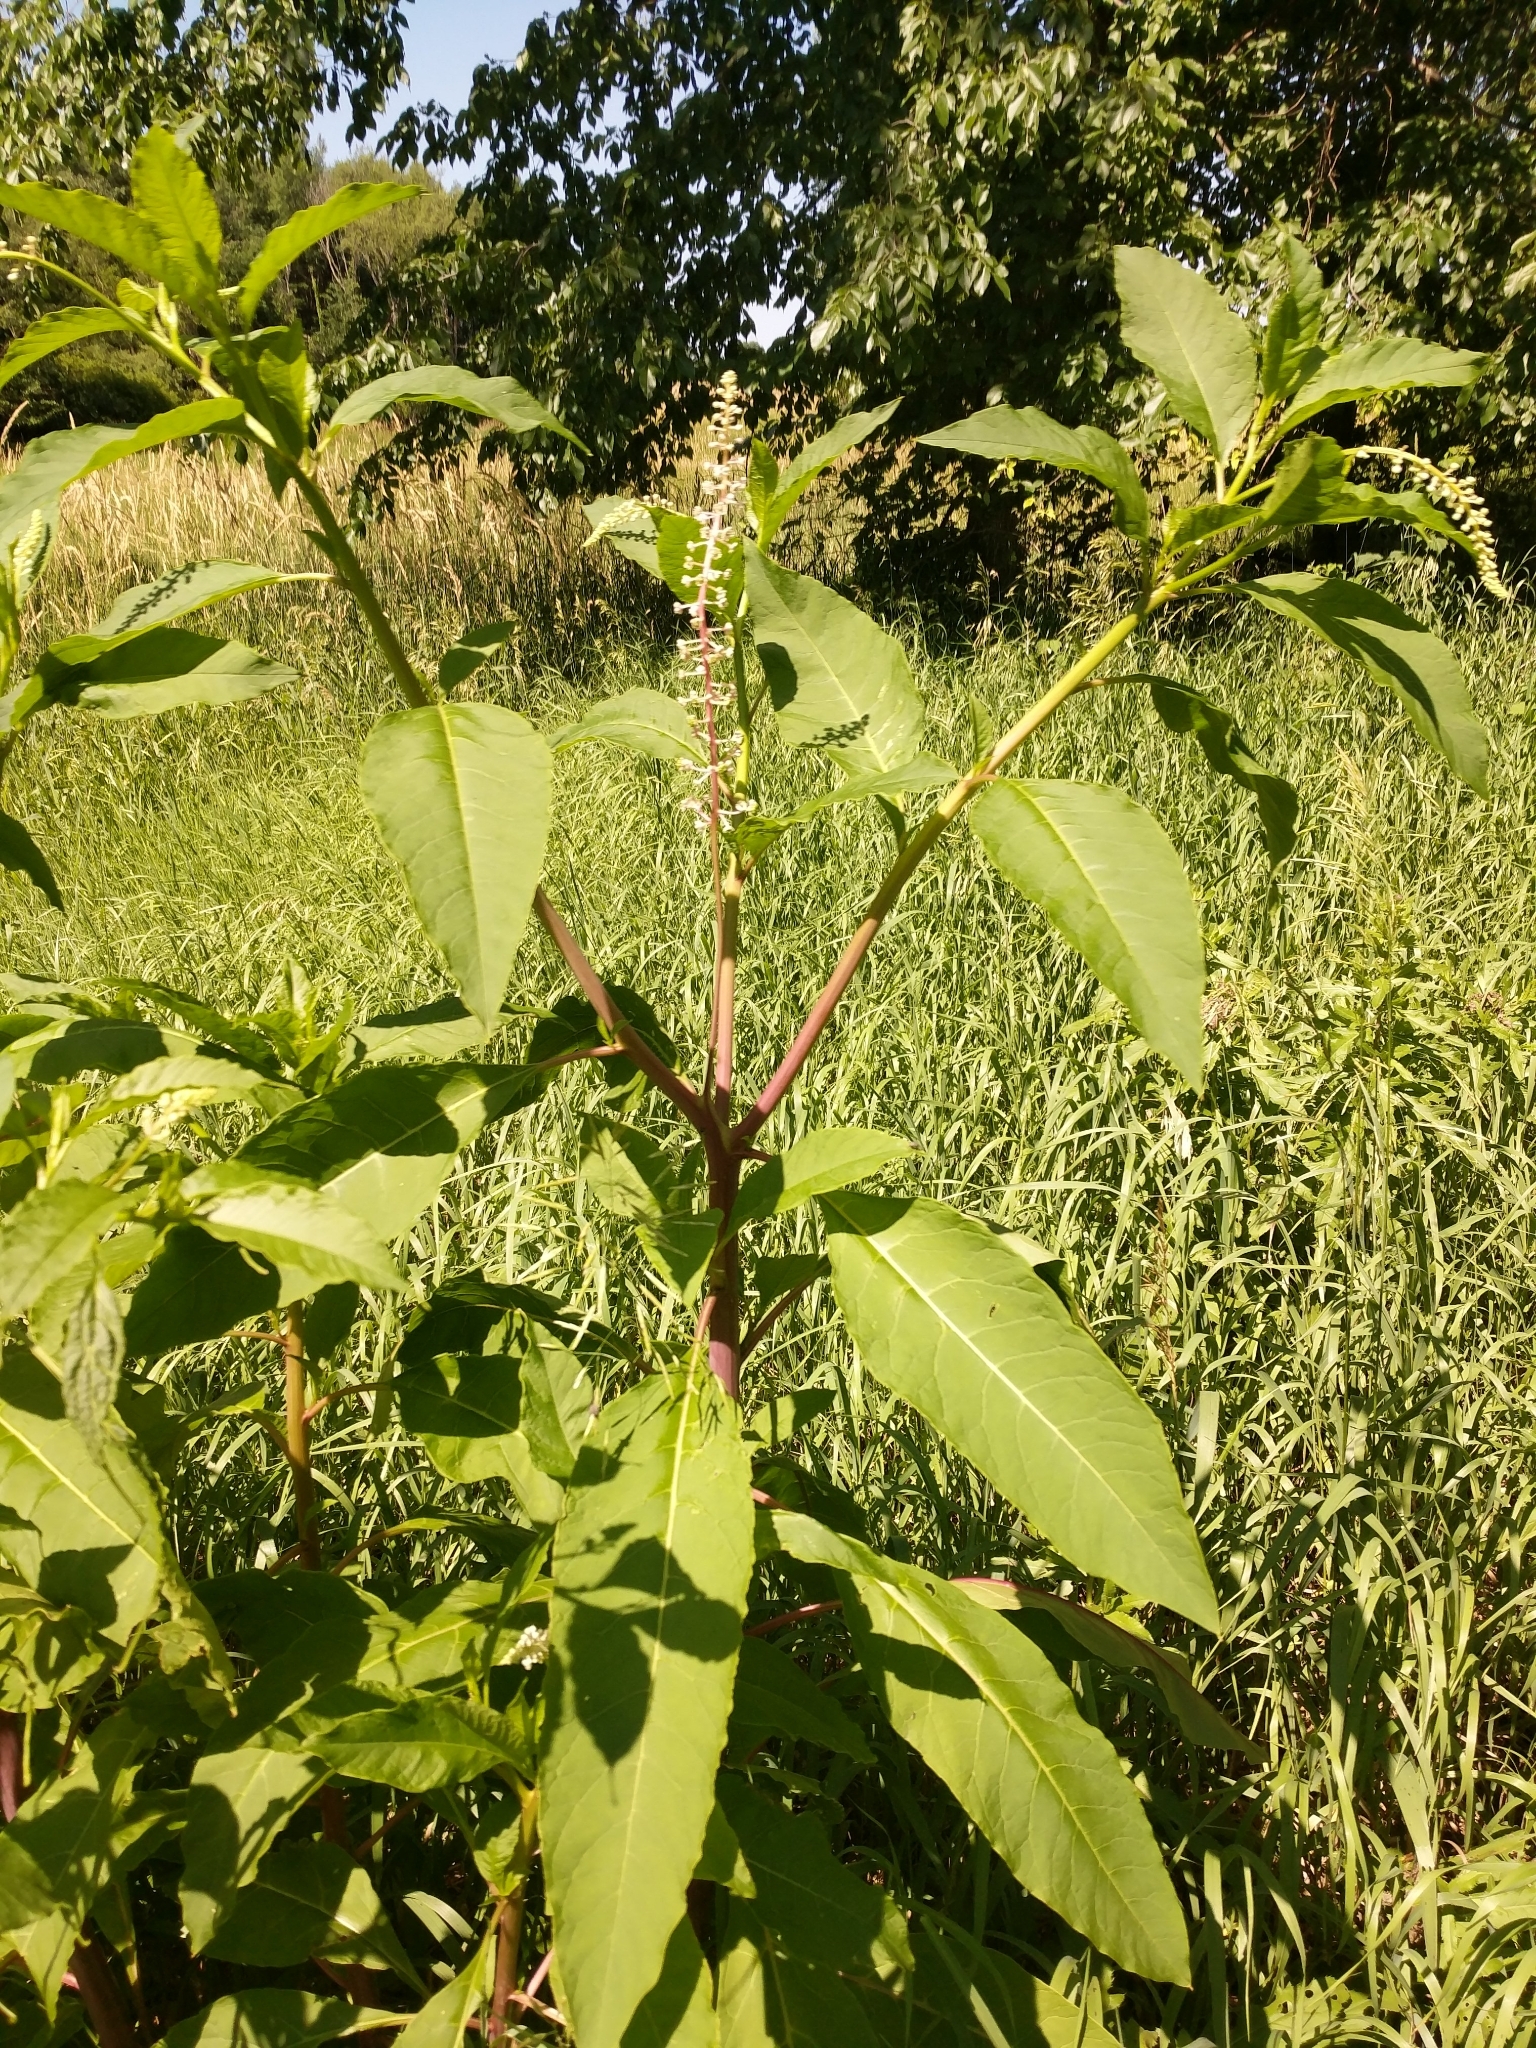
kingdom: Plantae
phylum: Tracheophyta
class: Magnoliopsida
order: Caryophyllales
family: Phytolaccaceae
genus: Phytolacca
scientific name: Phytolacca americana
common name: American pokeweed
